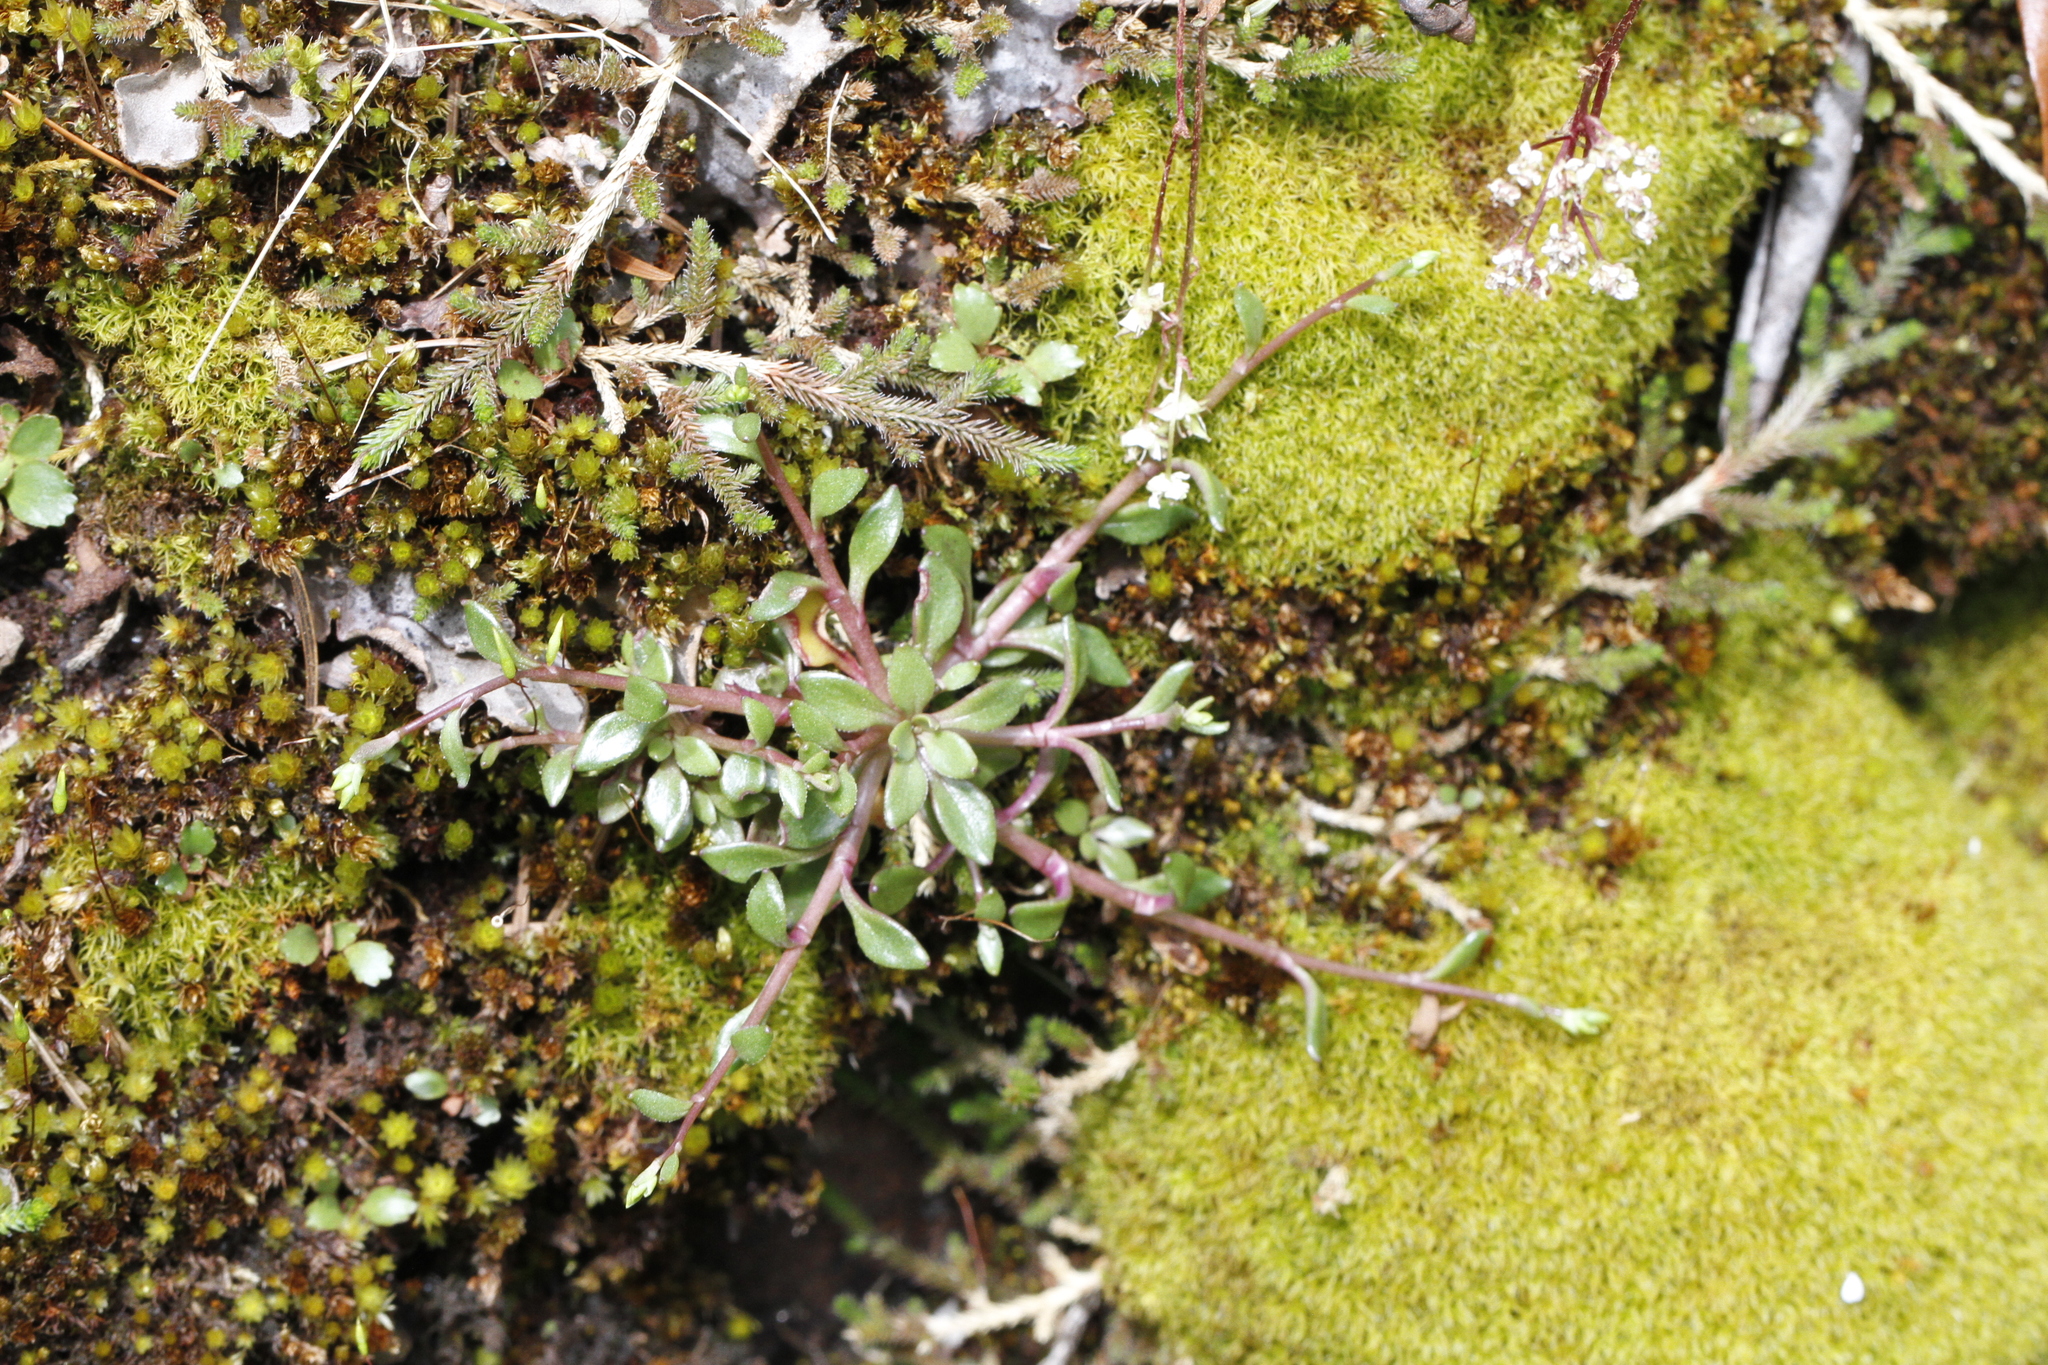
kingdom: Plantae
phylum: Tracheophyta
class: Magnoliopsida
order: Caryophyllales
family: Montiaceae
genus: Montia
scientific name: Montia parvifolia
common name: Small-leaved blinks
